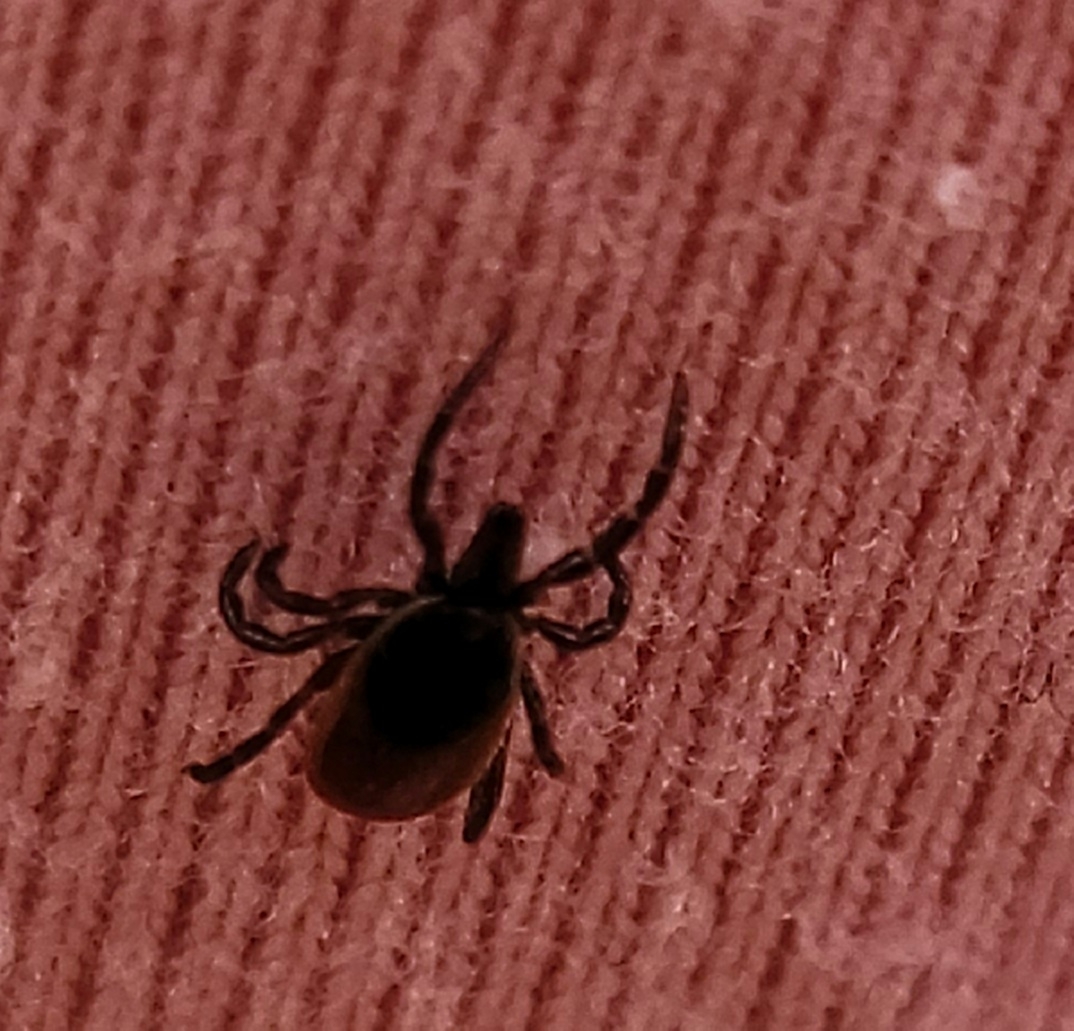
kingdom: Animalia
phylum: Arthropoda
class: Arachnida
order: Ixodida
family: Ixodidae
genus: Ixodes
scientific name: Ixodes scapularis
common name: Black legged tick
